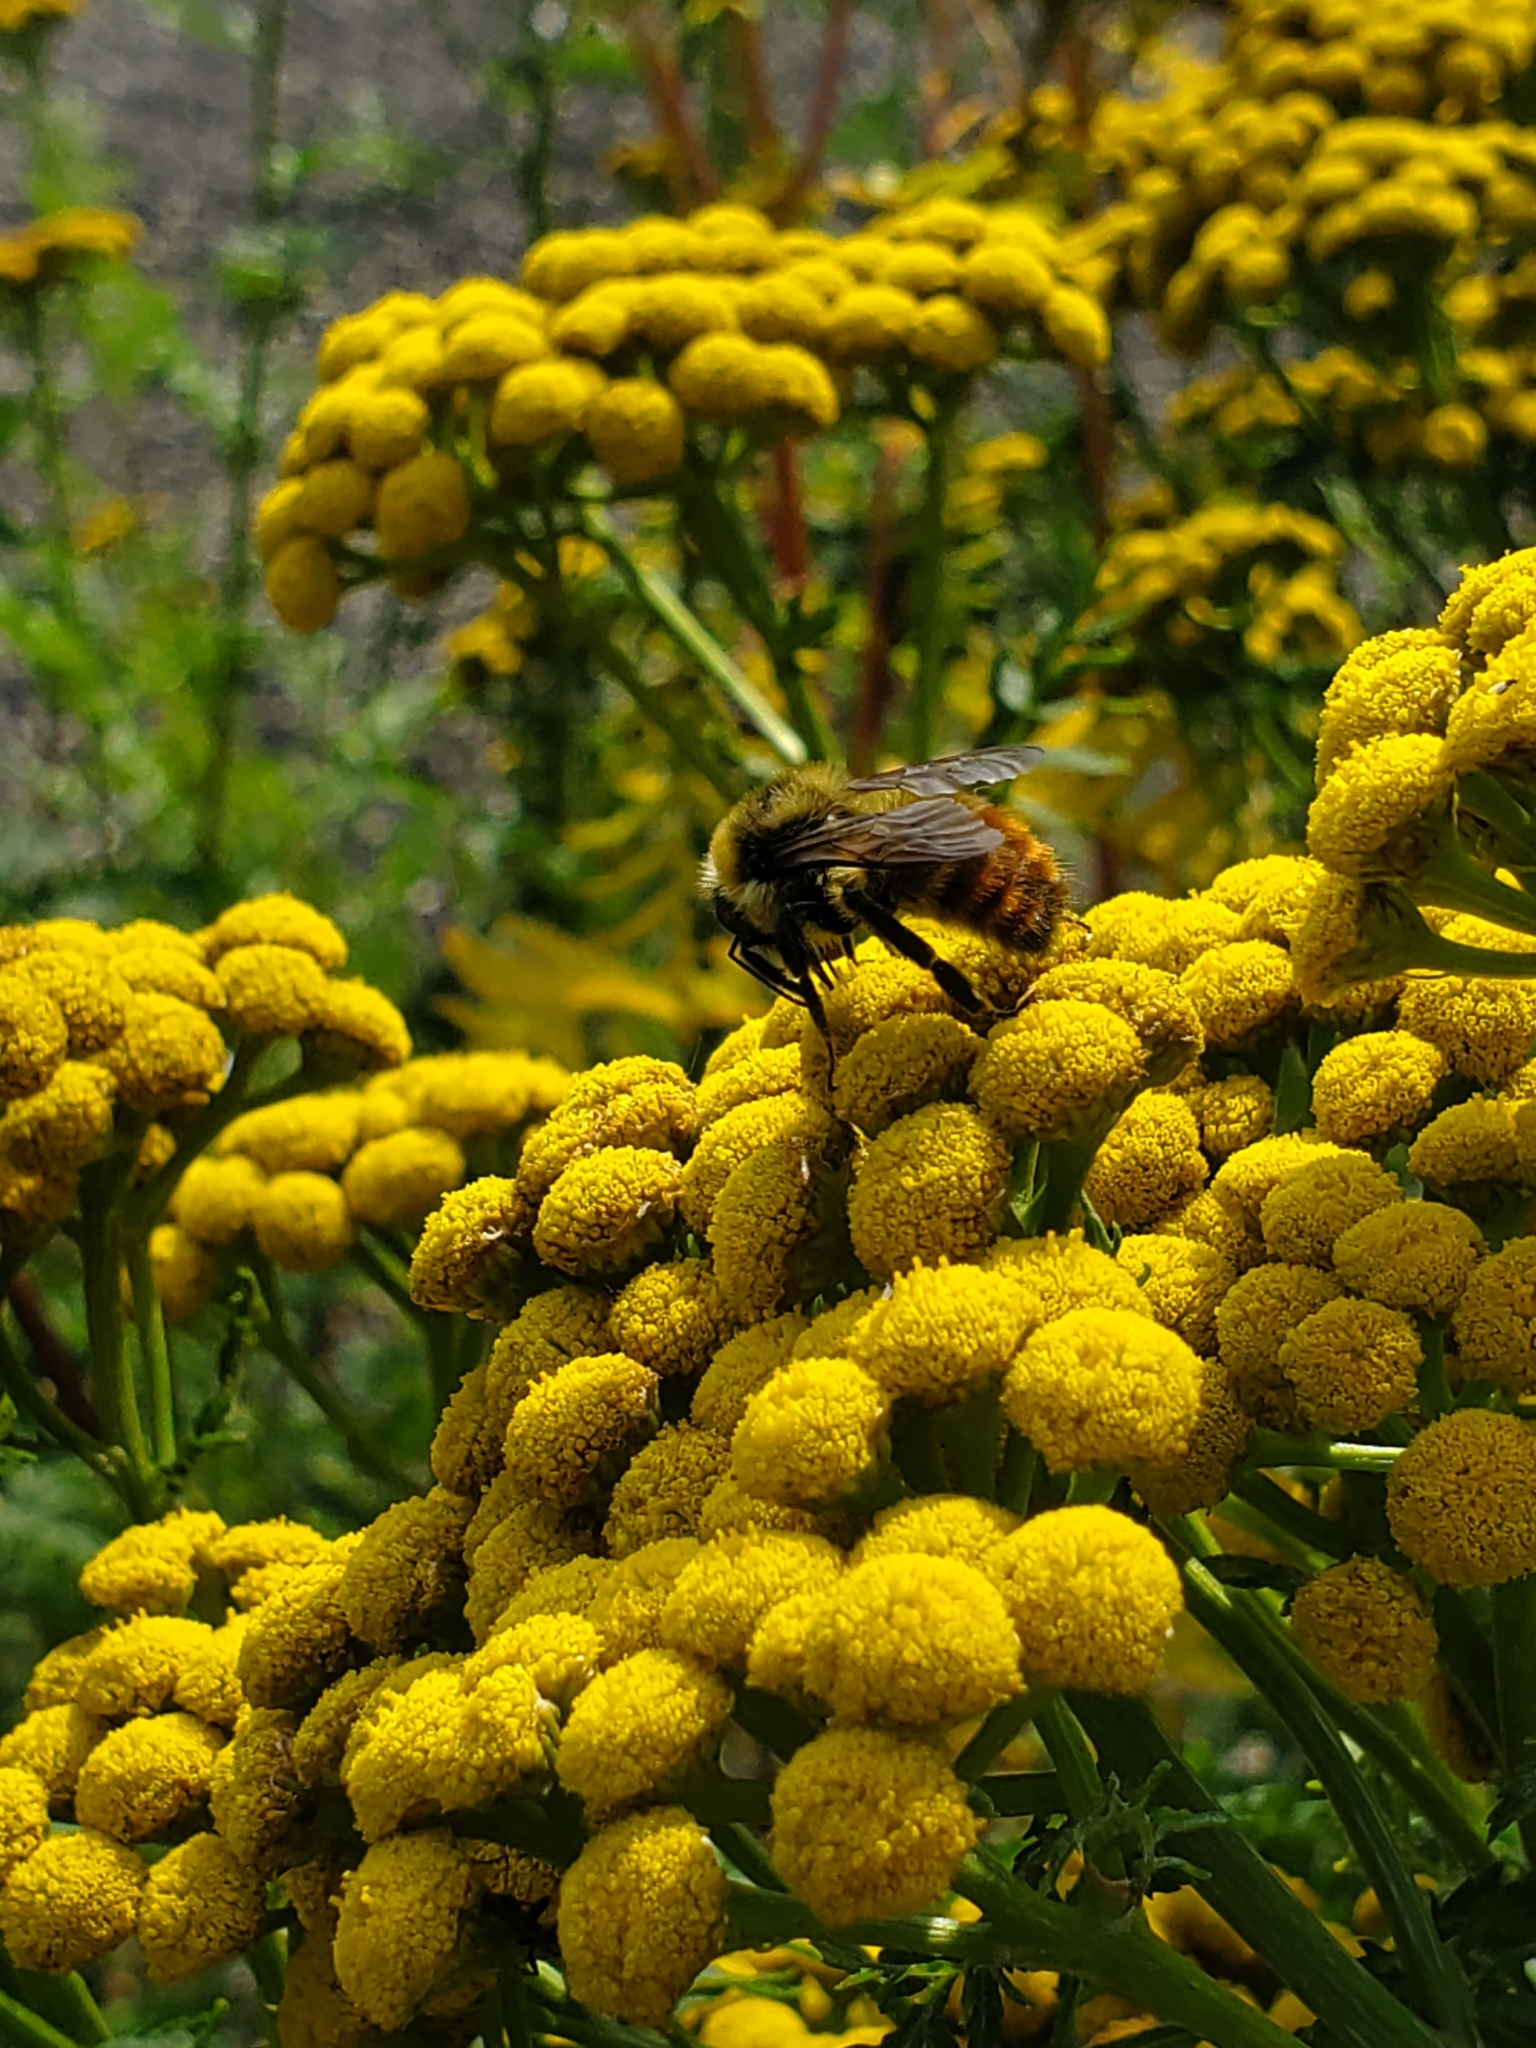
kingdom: Animalia
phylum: Arthropoda
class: Insecta
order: Hymenoptera
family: Apidae
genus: Bombus
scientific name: Bombus rufocinctus
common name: Red-belted bumble bee
